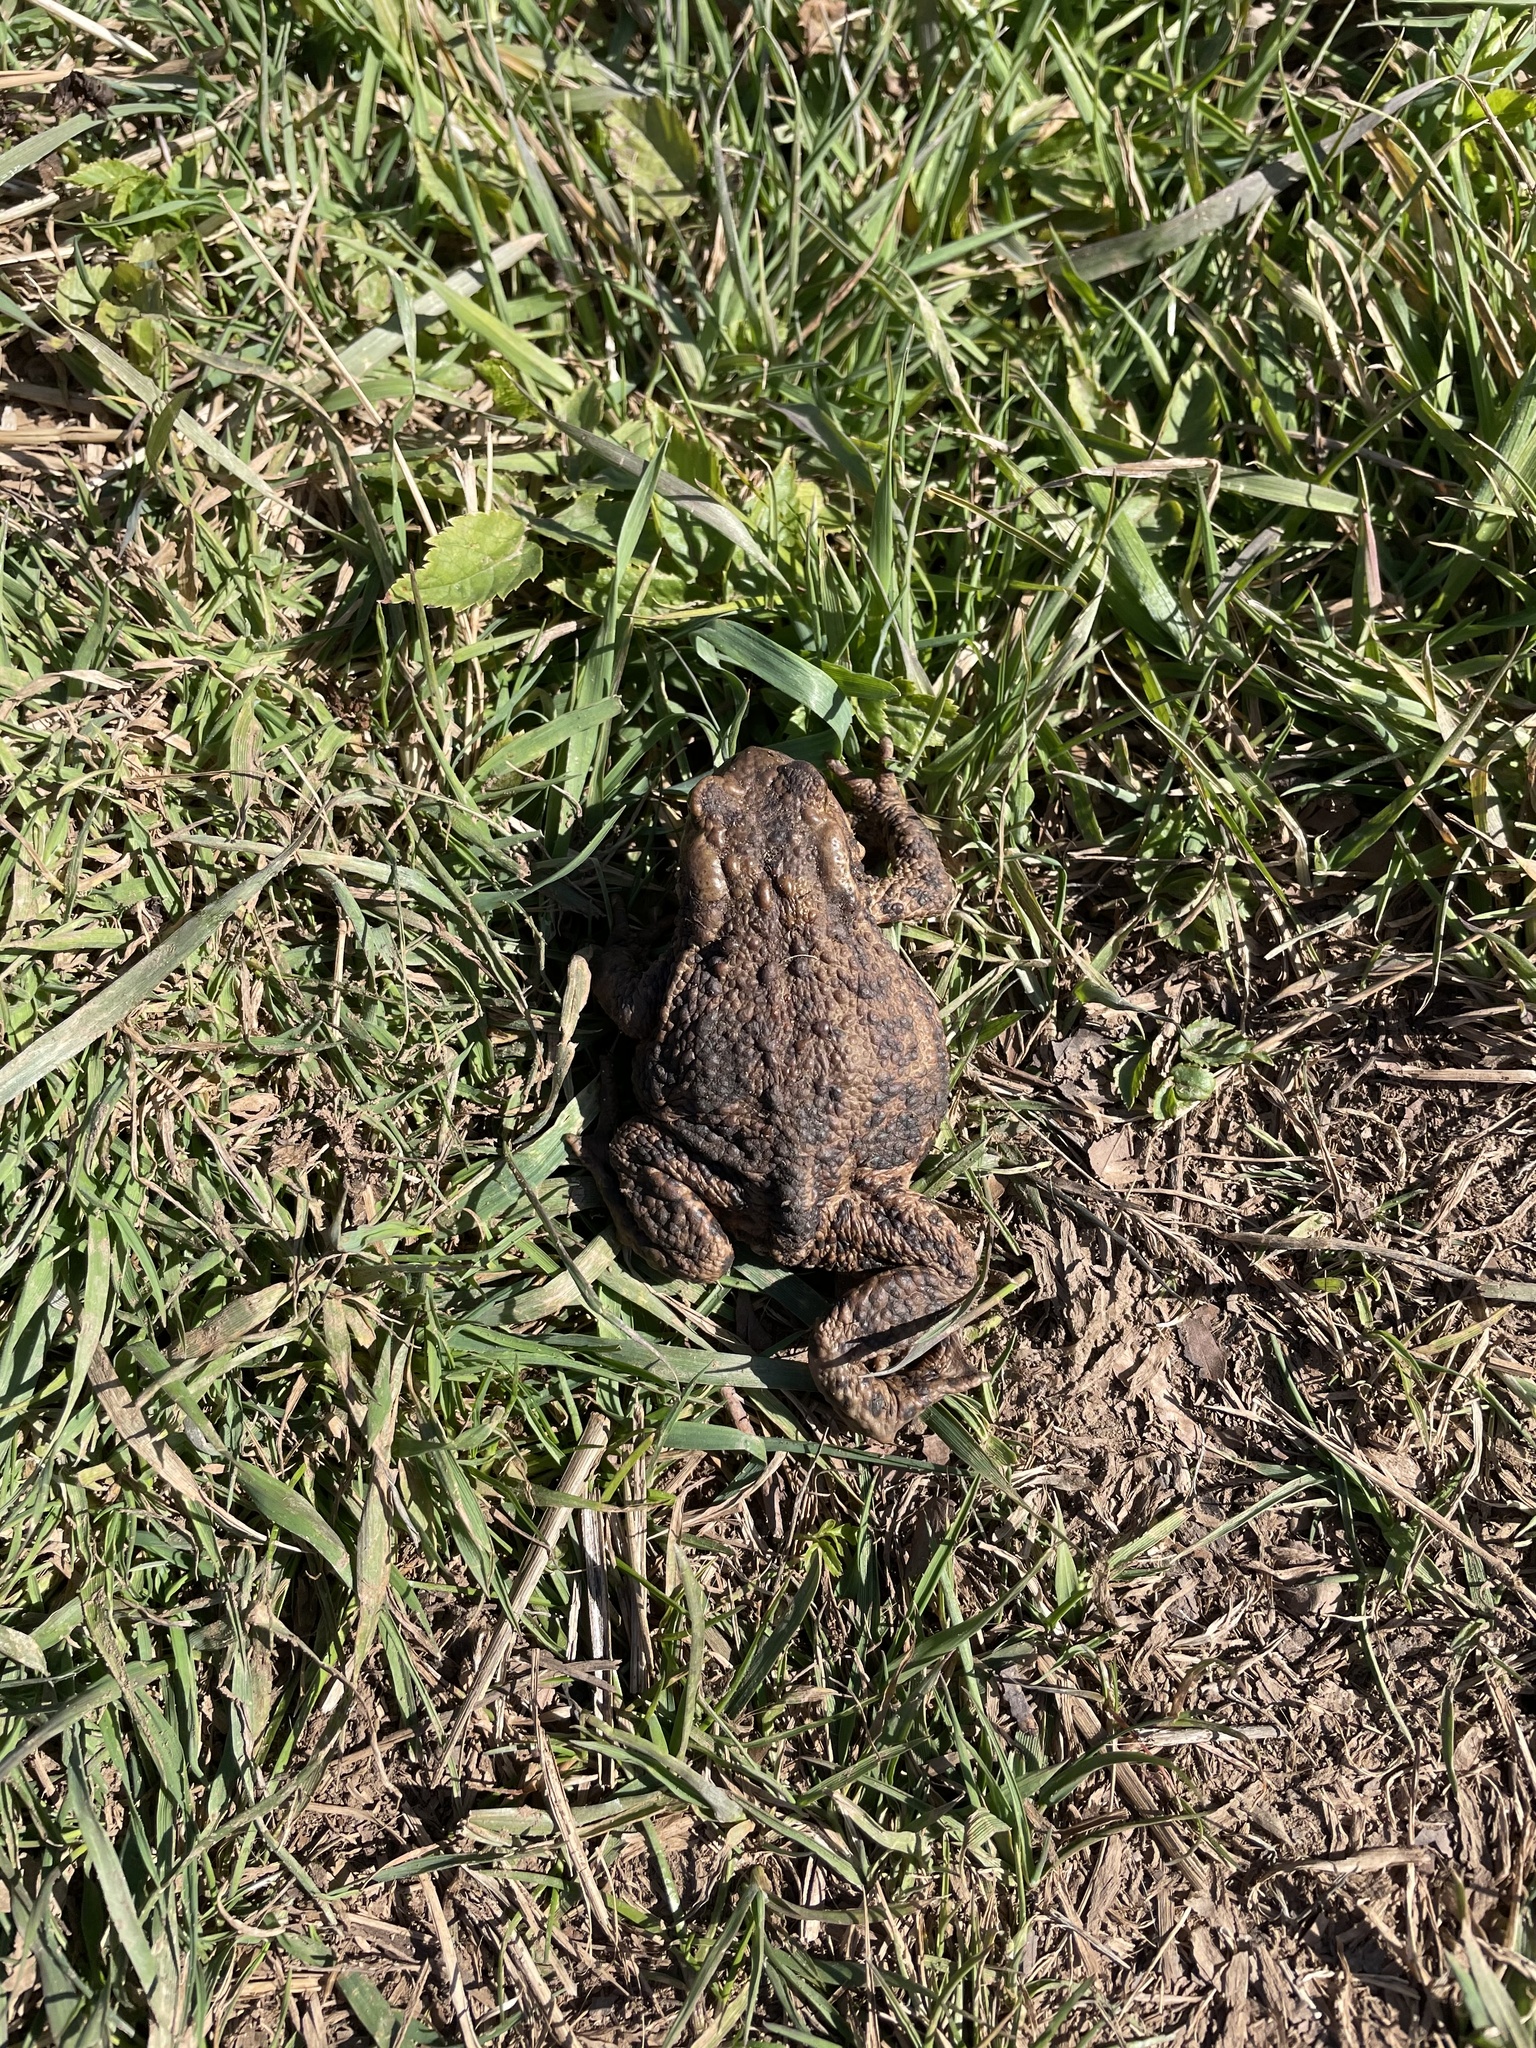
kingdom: Animalia
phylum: Chordata
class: Amphibia
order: Anura
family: Bufonidae
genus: Bufo
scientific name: Bufo bufo
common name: Common toad
